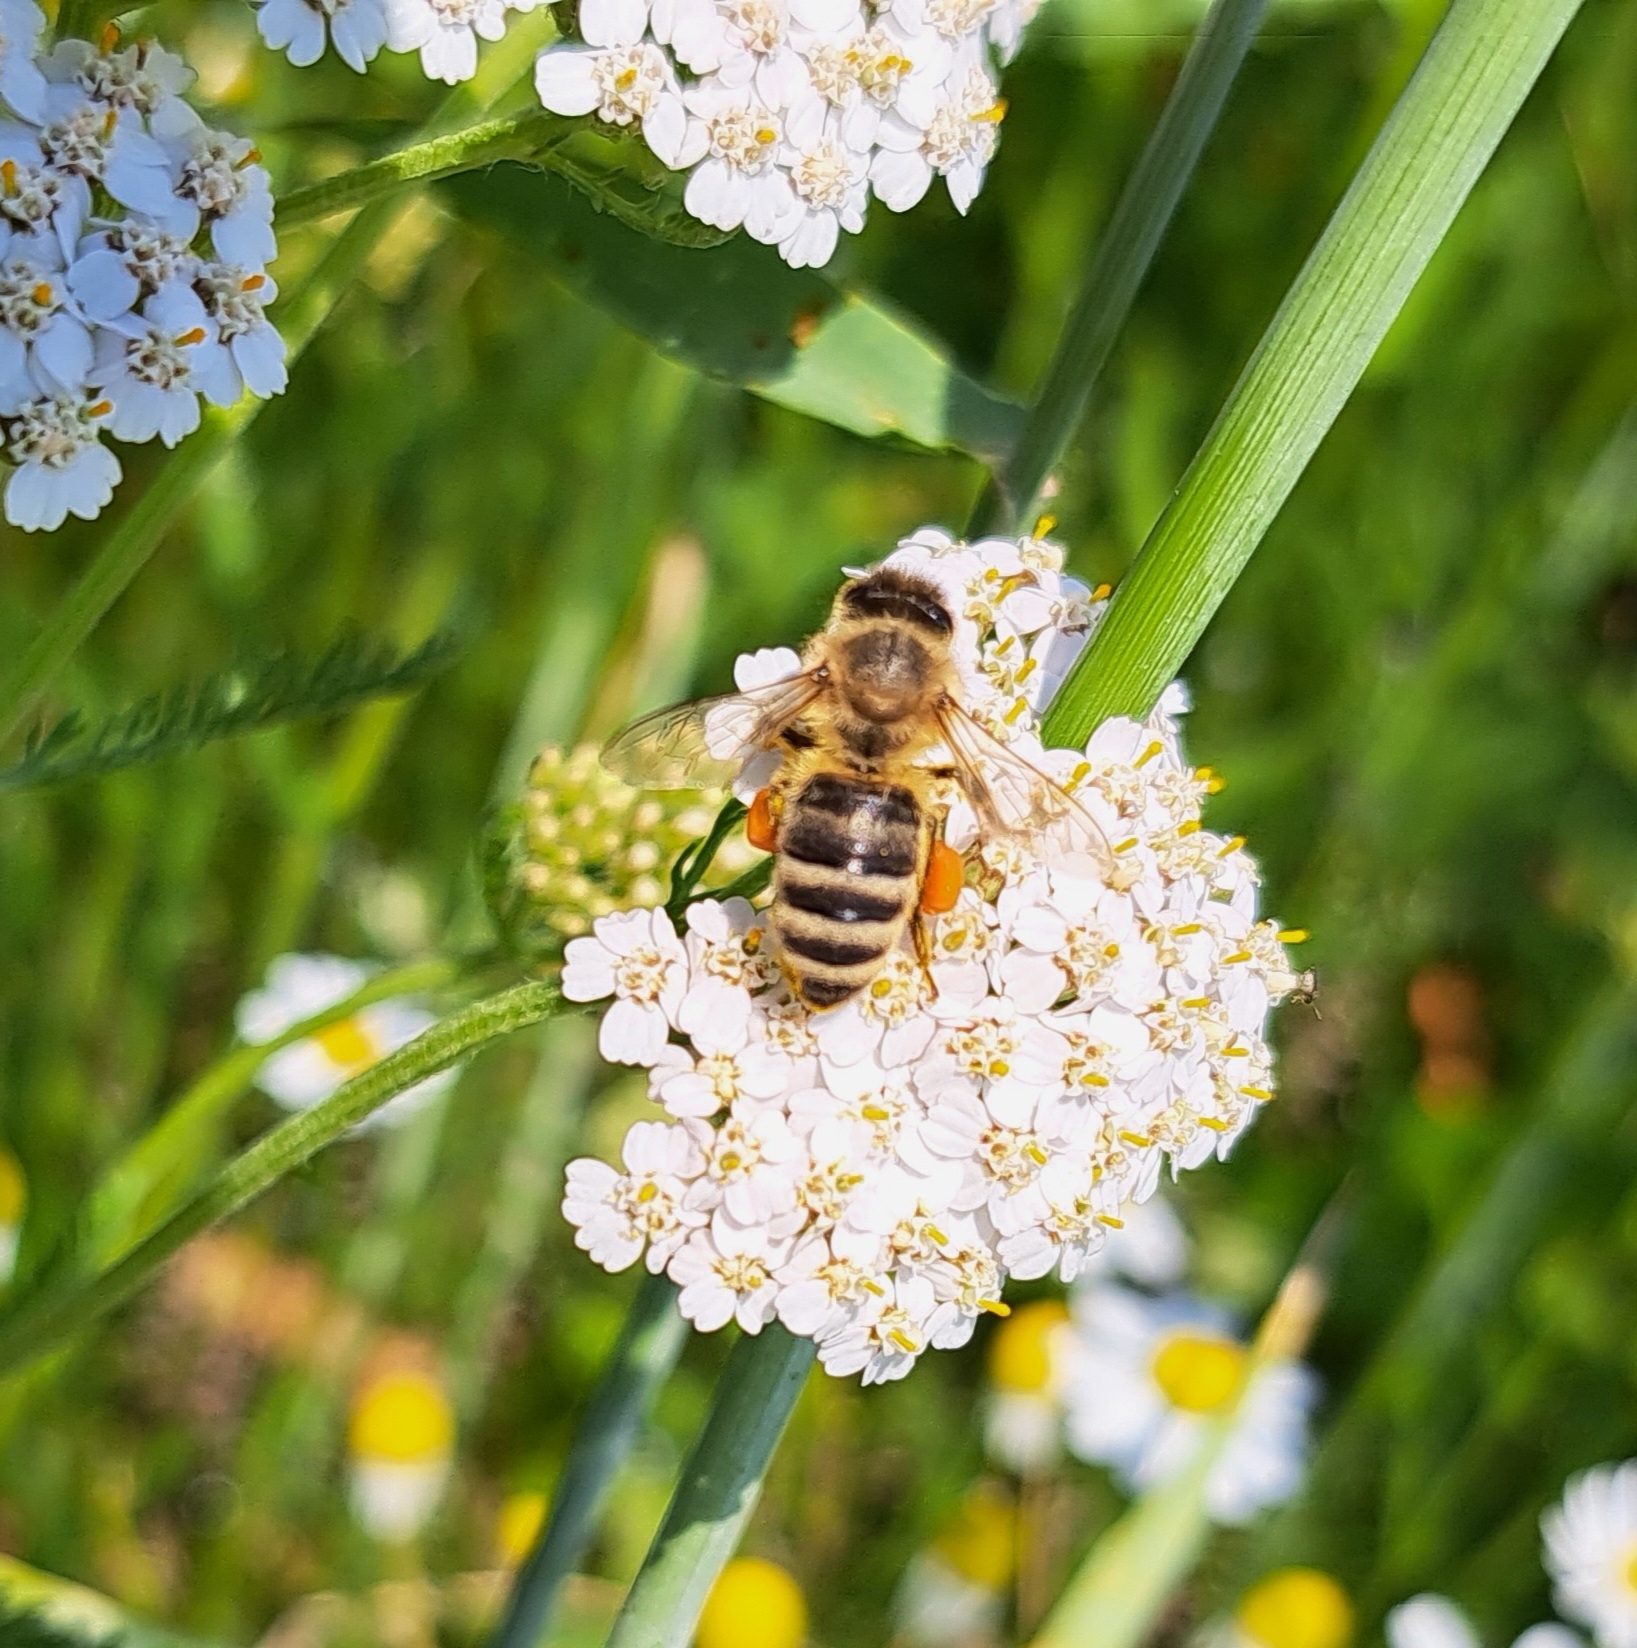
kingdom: Animalia
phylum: Arthropoda
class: Insecta
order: Hymenoptera
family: Apidae
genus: Apis
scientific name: Apis mellifera
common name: Honey bee
